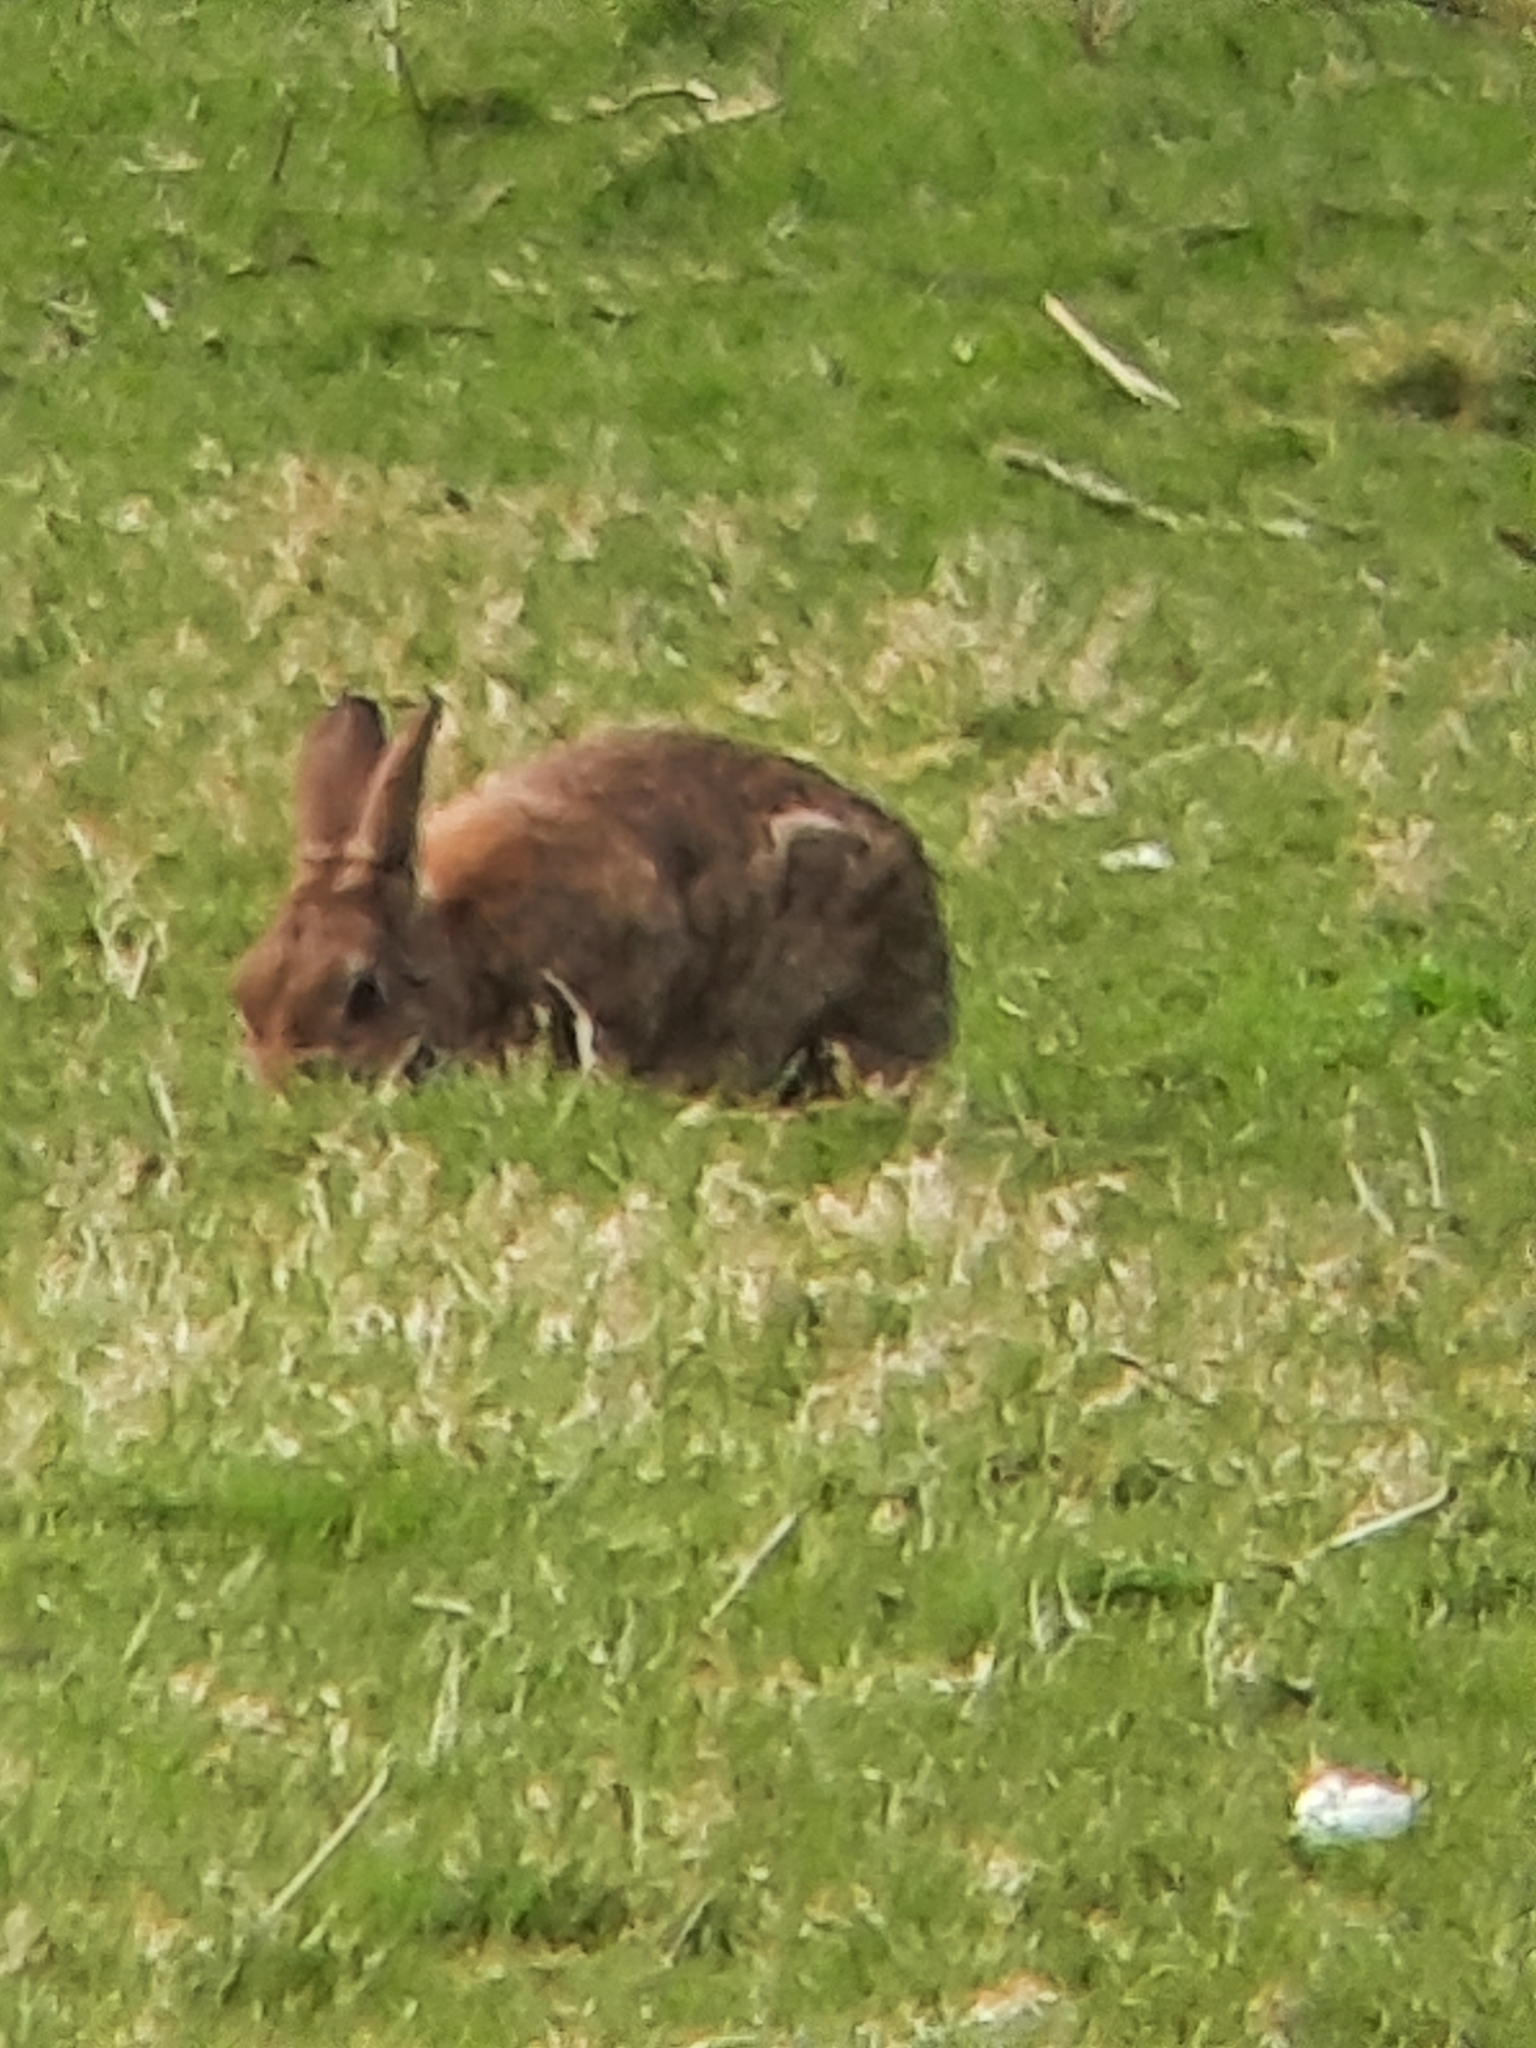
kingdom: Animalia
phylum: Chordata
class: Mammalia
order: Lagomorpha
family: Leporidae
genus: Oryctolagus
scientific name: Oryctolagus cuniculus
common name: European rabbit
